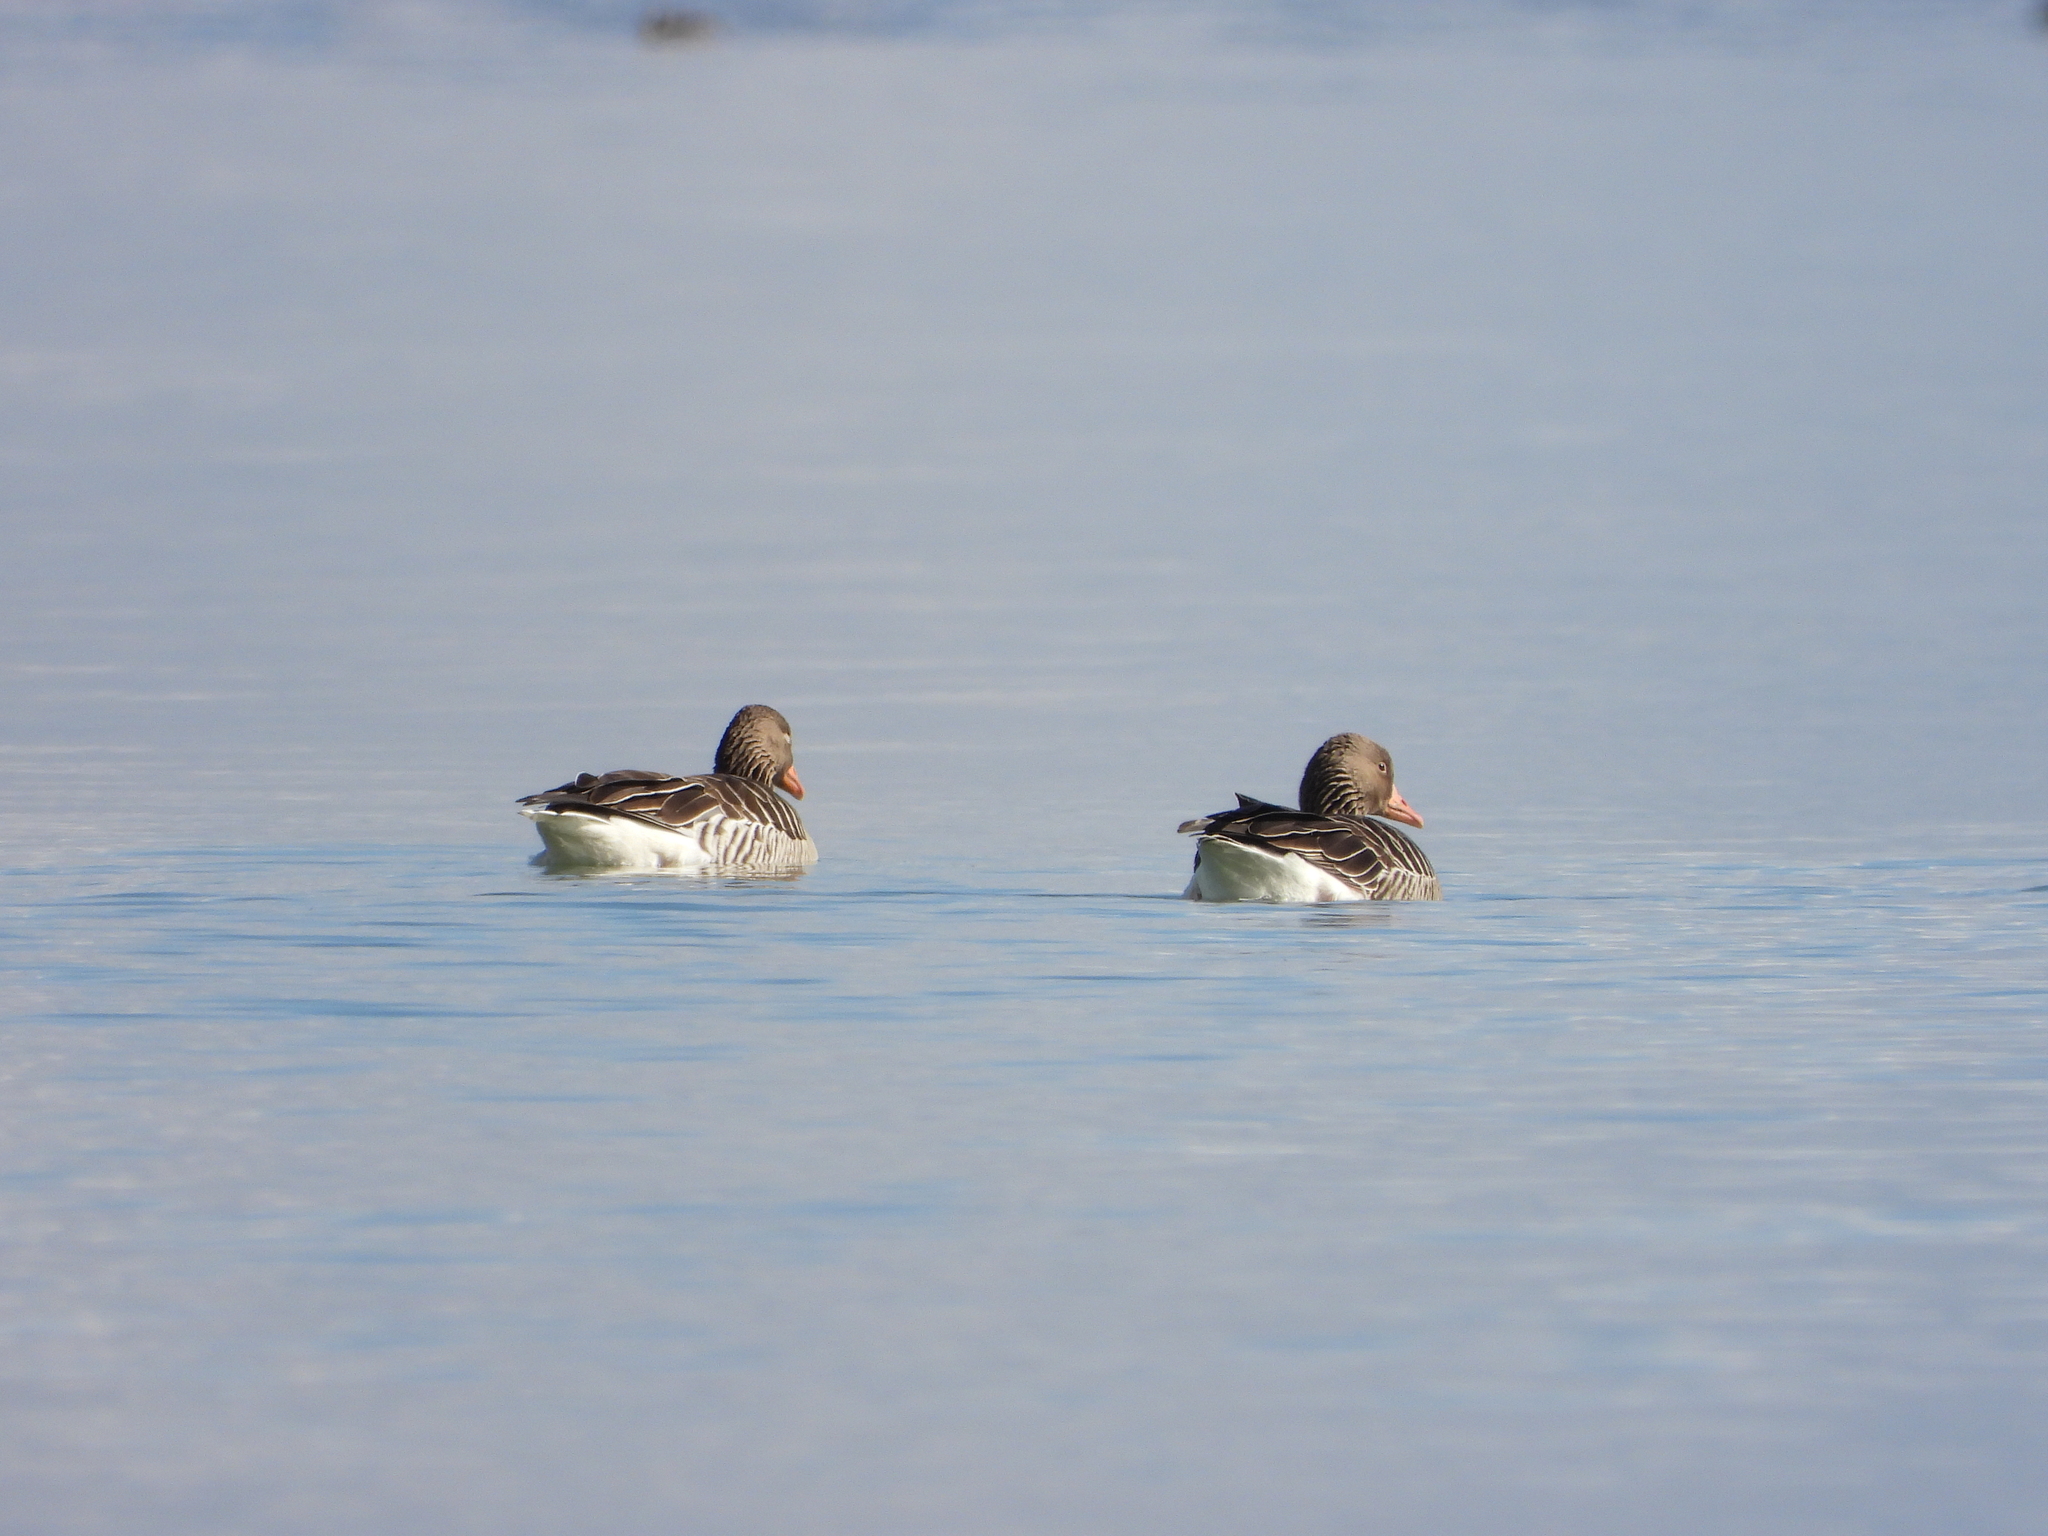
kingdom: Animalia
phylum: Chordata
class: Aves
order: Anseriformes
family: Anatidae
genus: Anser
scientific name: Anser anser
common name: Greylag goose
